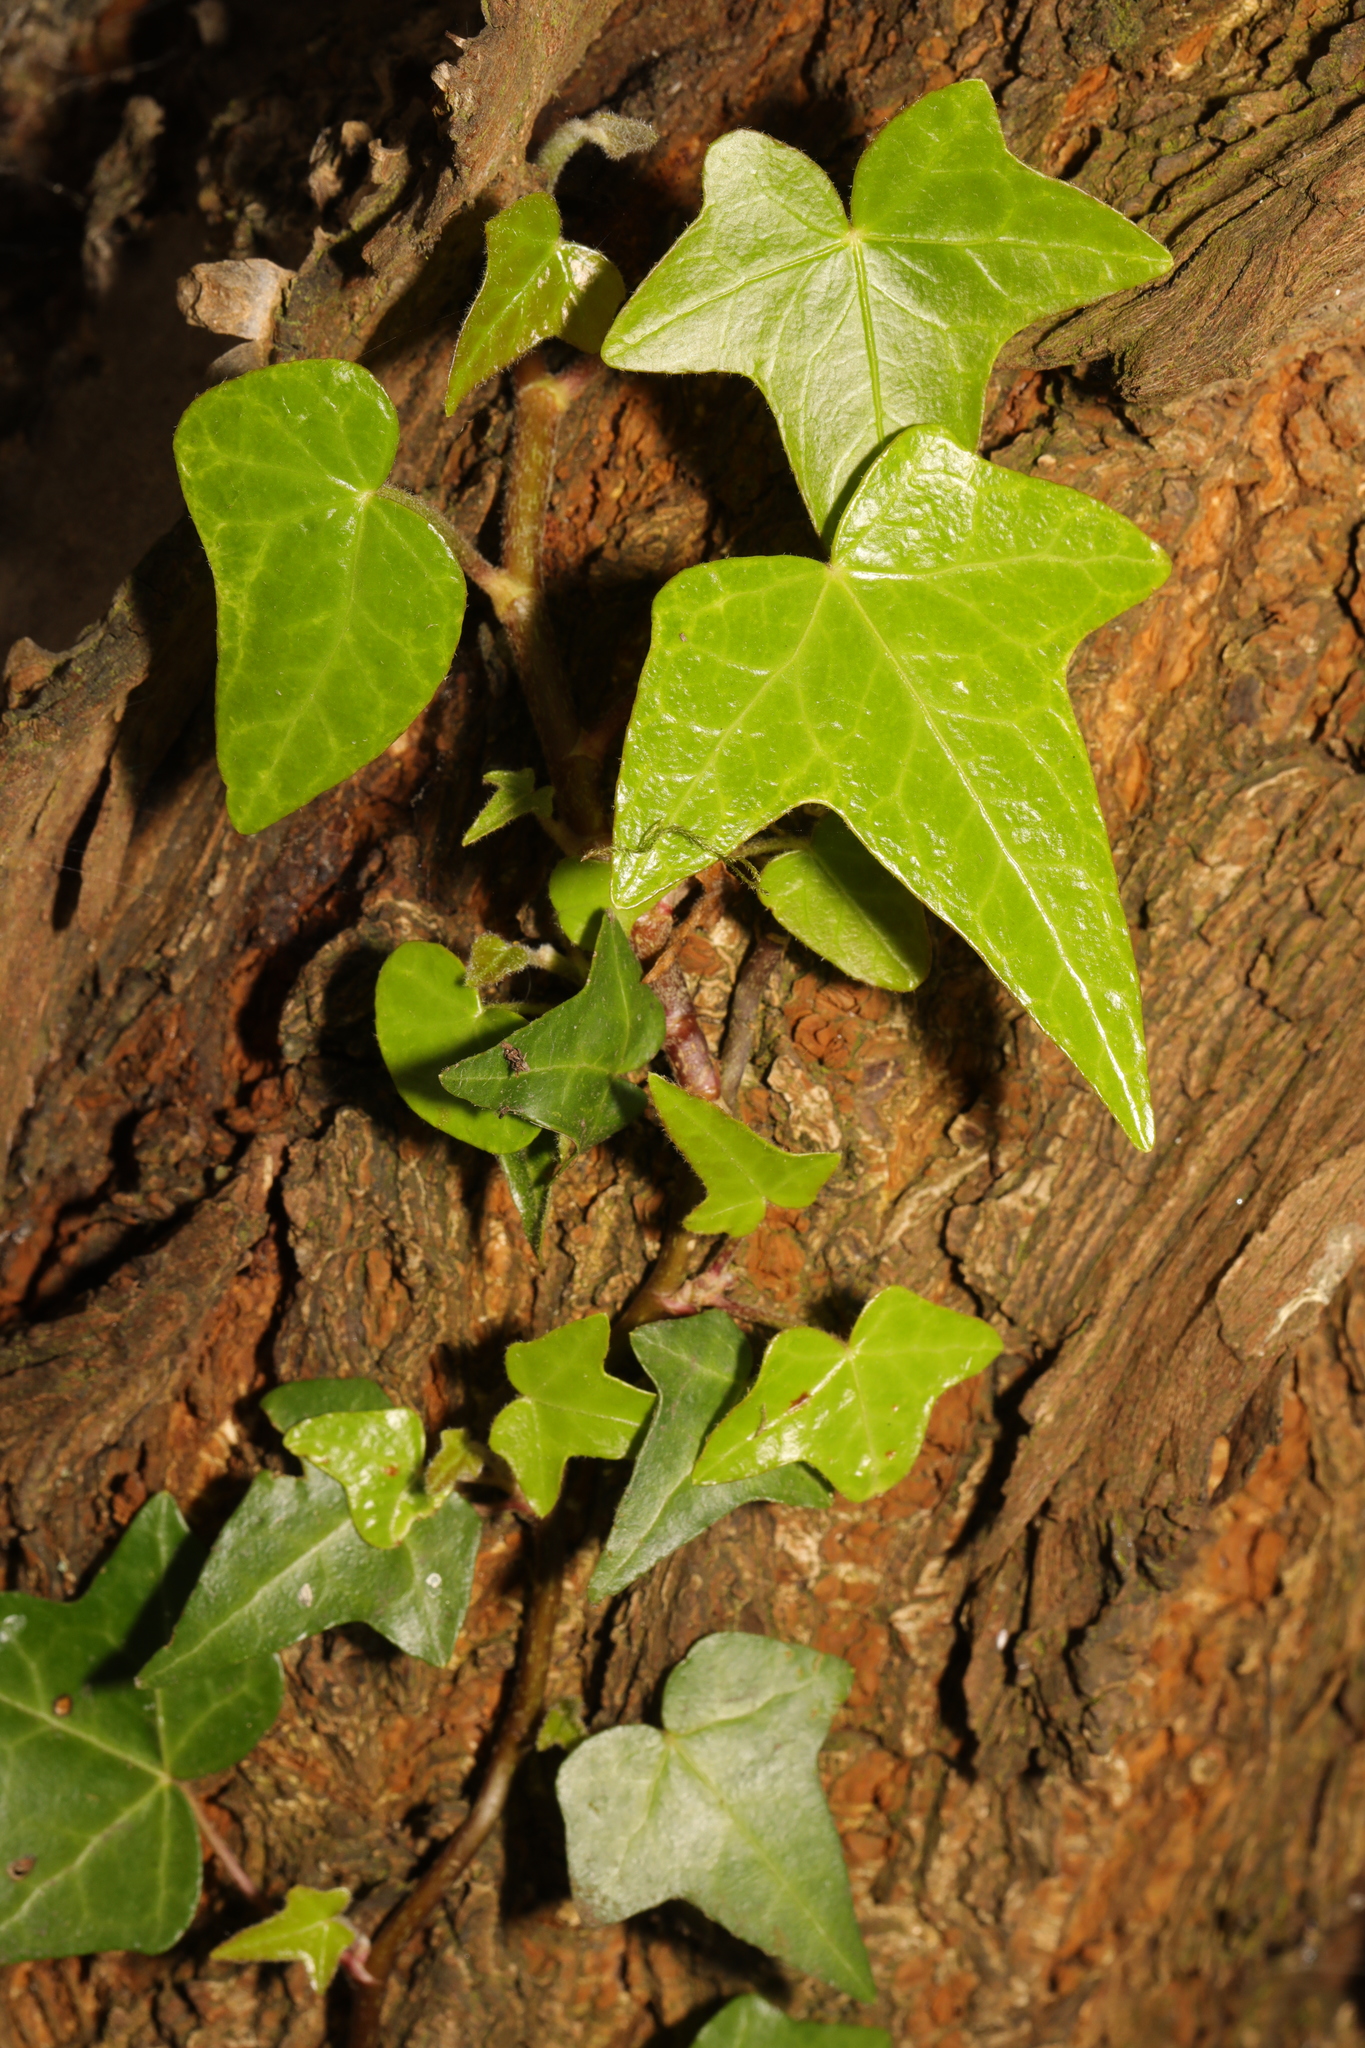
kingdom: Plantae
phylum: Tracheophyta
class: Magnoliopsida
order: Apiales
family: Araliaceae
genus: Hedera
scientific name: Hedera helix
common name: Ivy
